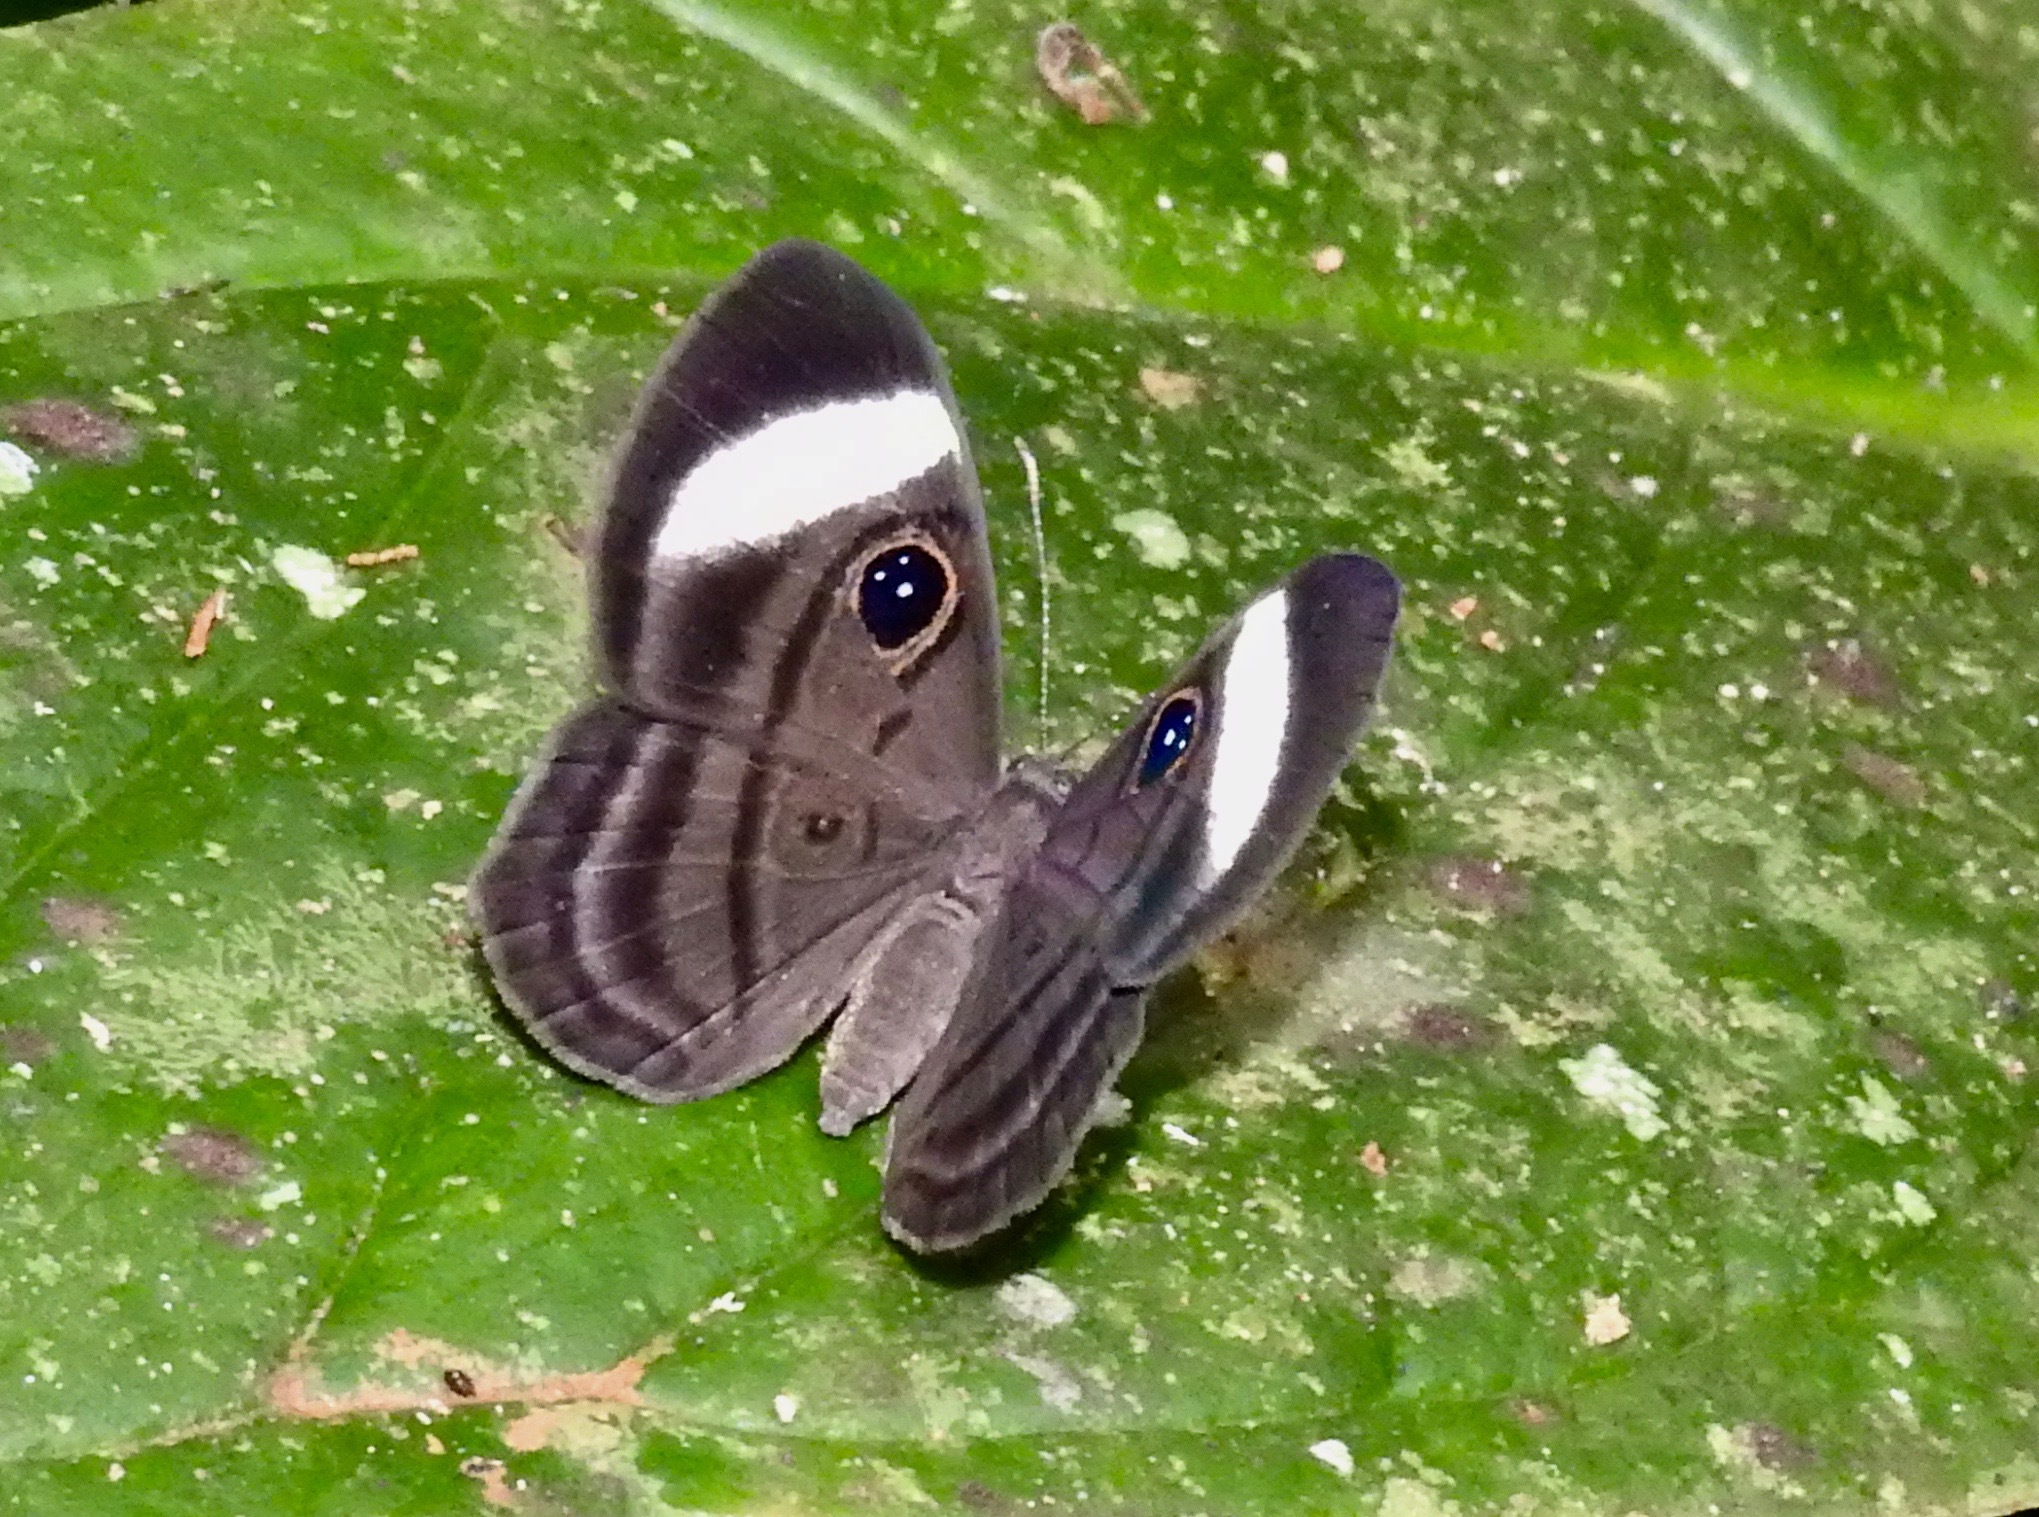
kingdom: Animalia
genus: Mesosemia
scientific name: Mesosemia asa
